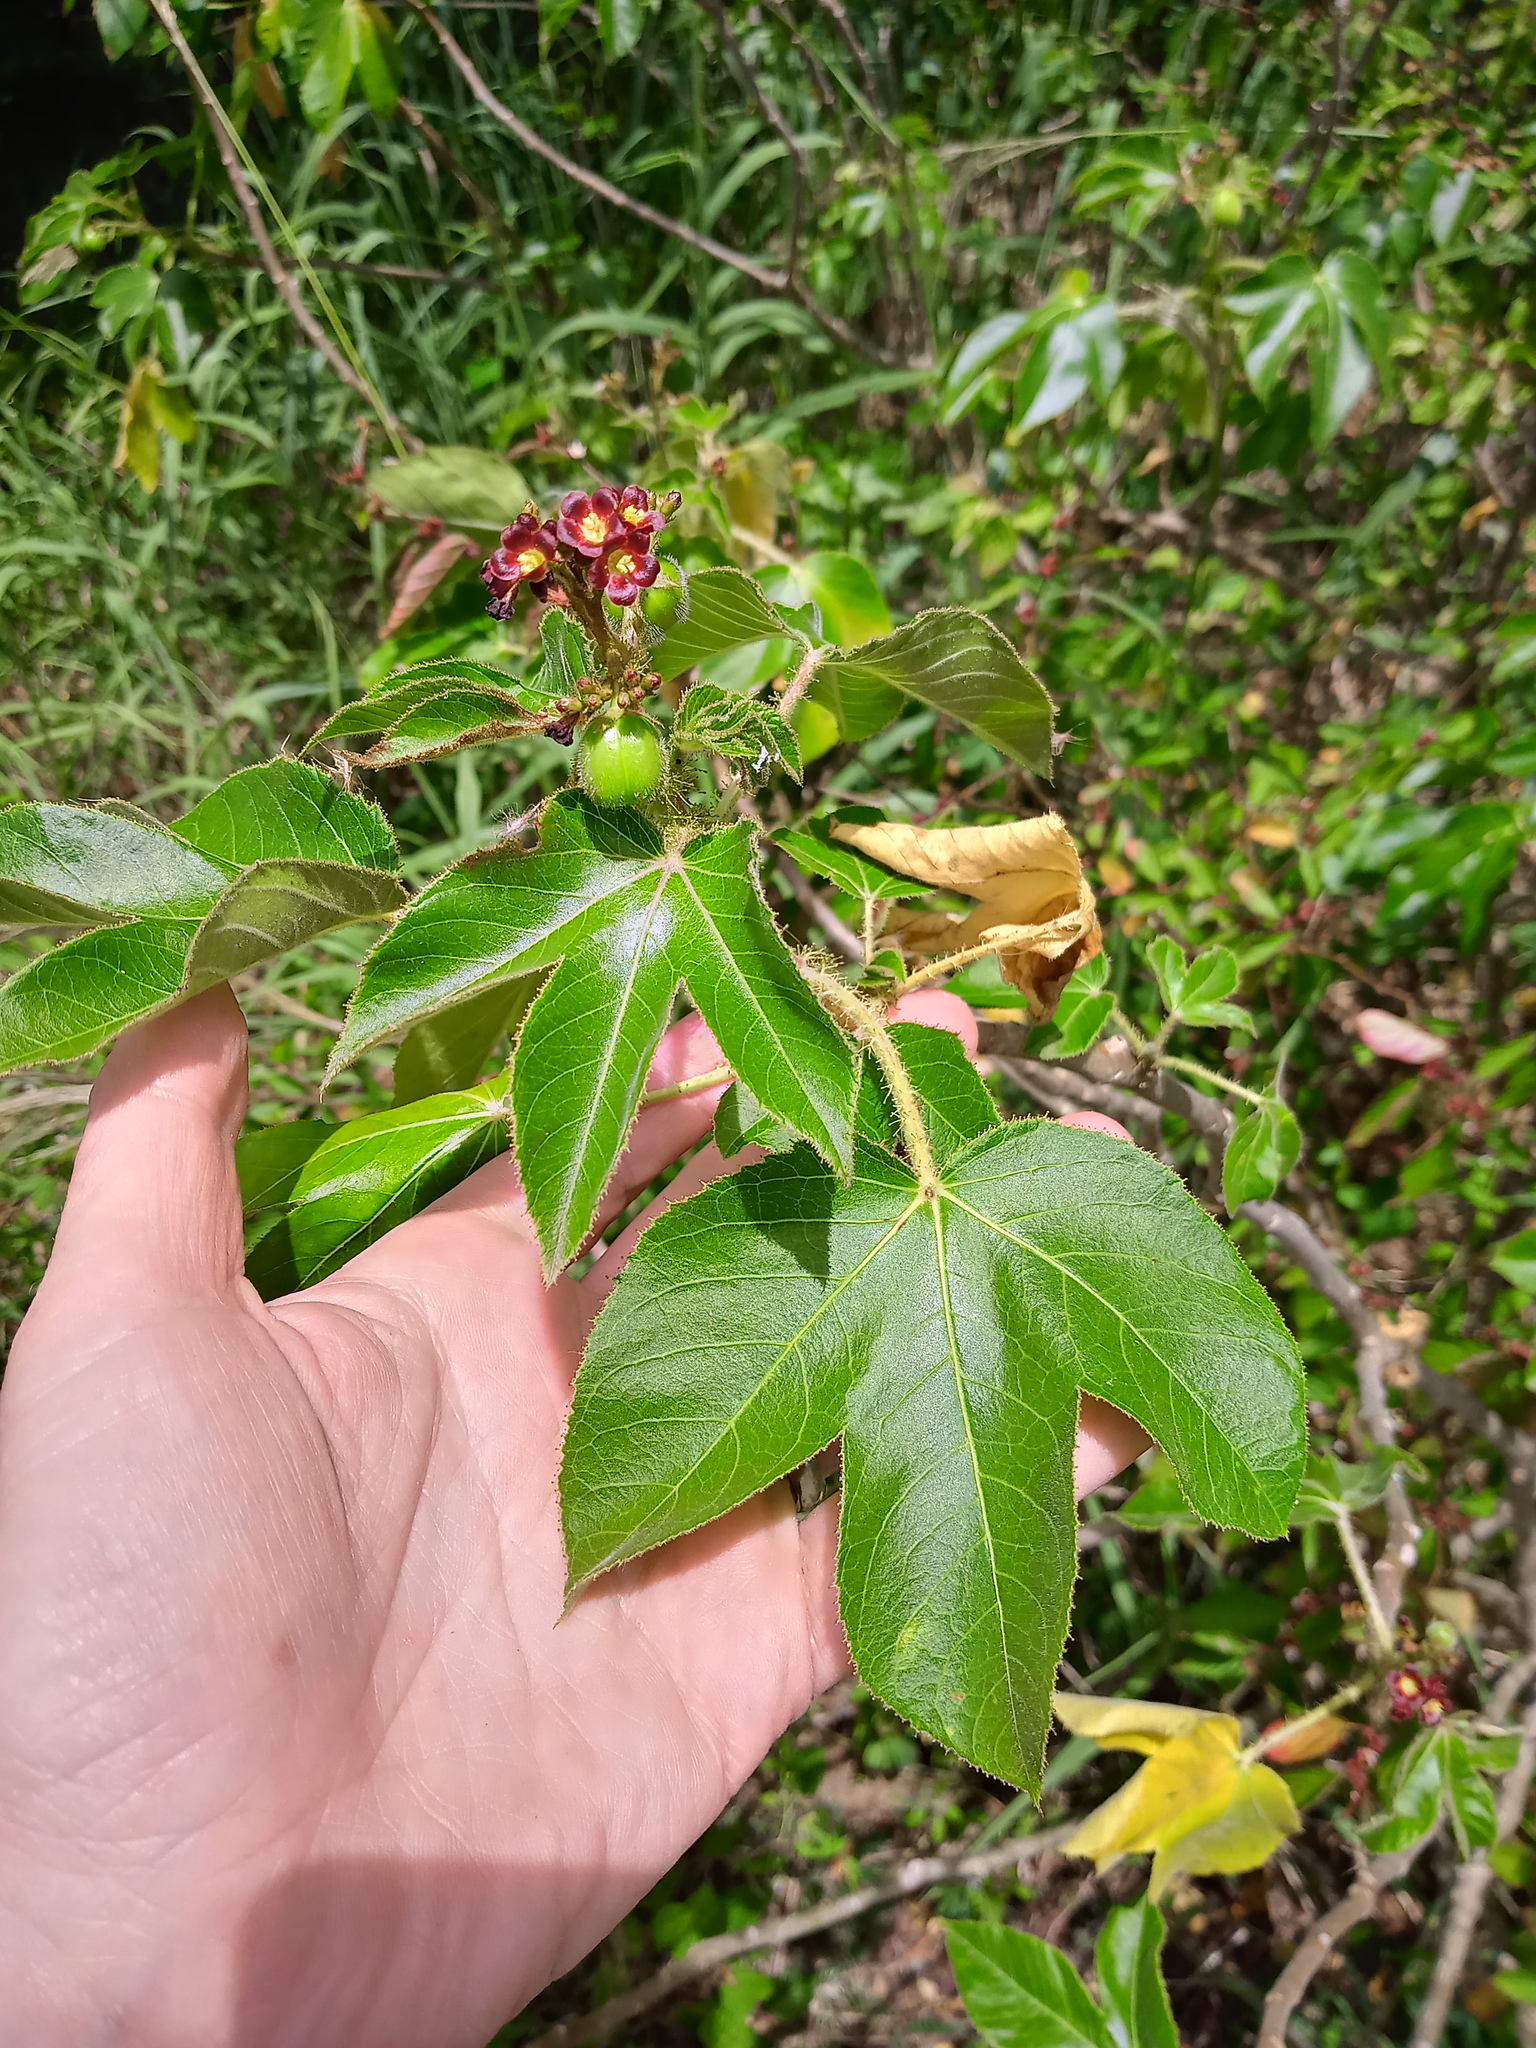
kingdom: Plantae
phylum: Tracheophyta
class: Magnoliopsida
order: Malpighiales
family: Euphorbiaceae
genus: Jatropha
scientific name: Jatropha gossypiifolia
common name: Bellyache bush
